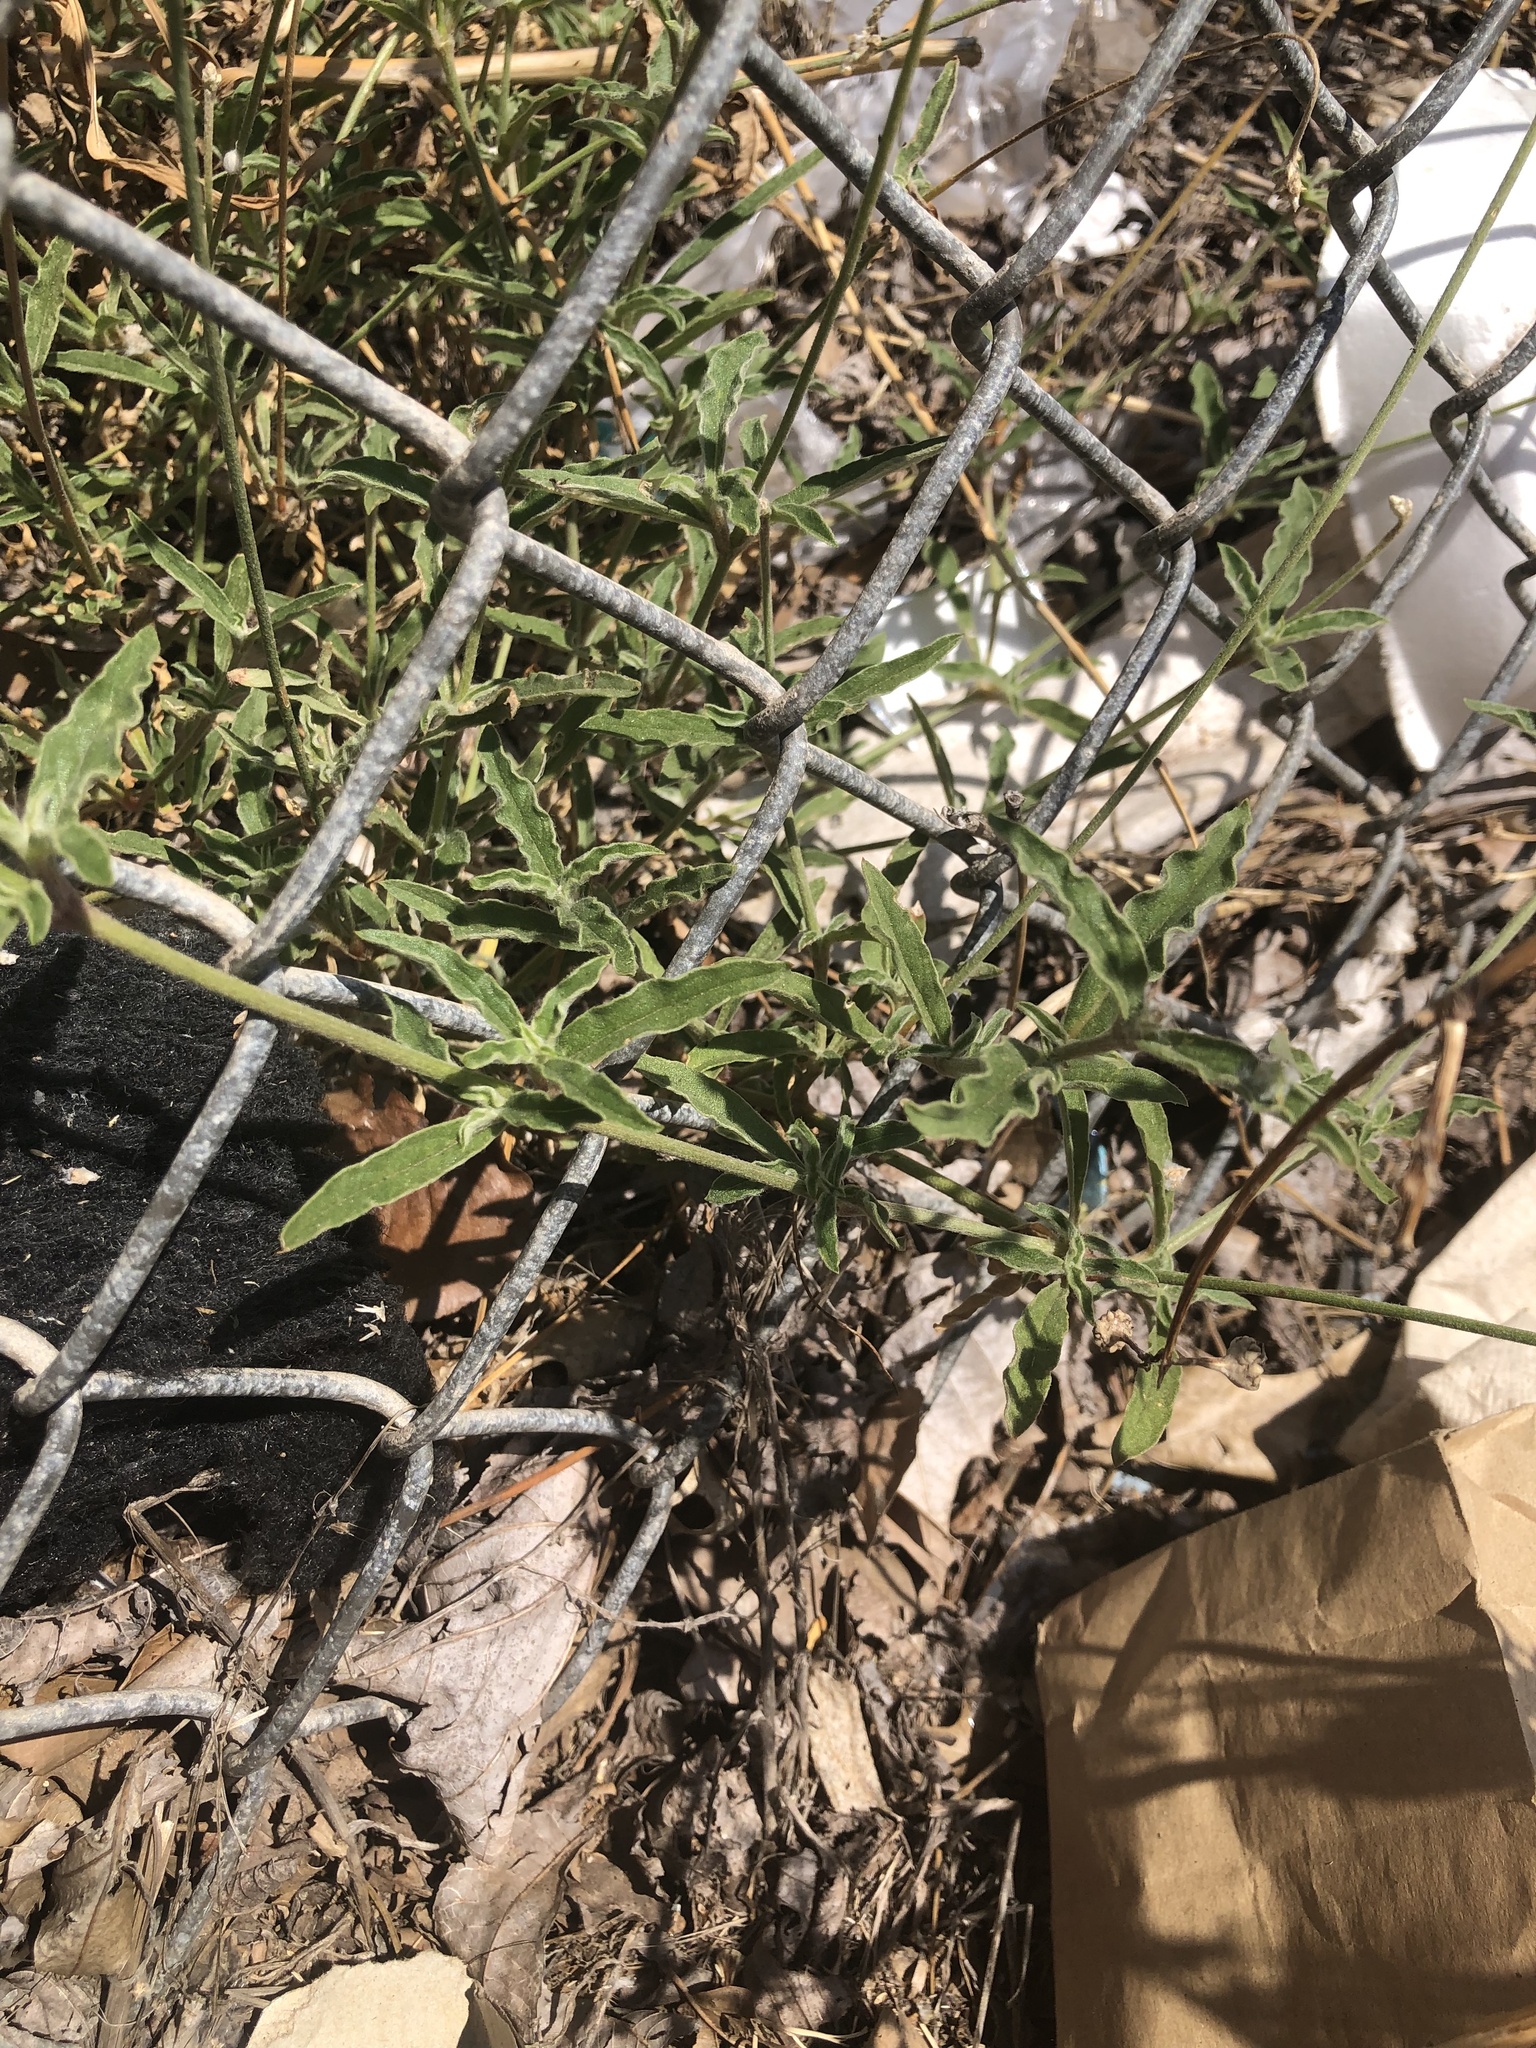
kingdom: Plantae
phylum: Tracheophyta
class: Magnoliopsida
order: Solanales
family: Solanaceae
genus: Solanum
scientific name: Solanum elaeagnifolium
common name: Silverleaf nightshade
